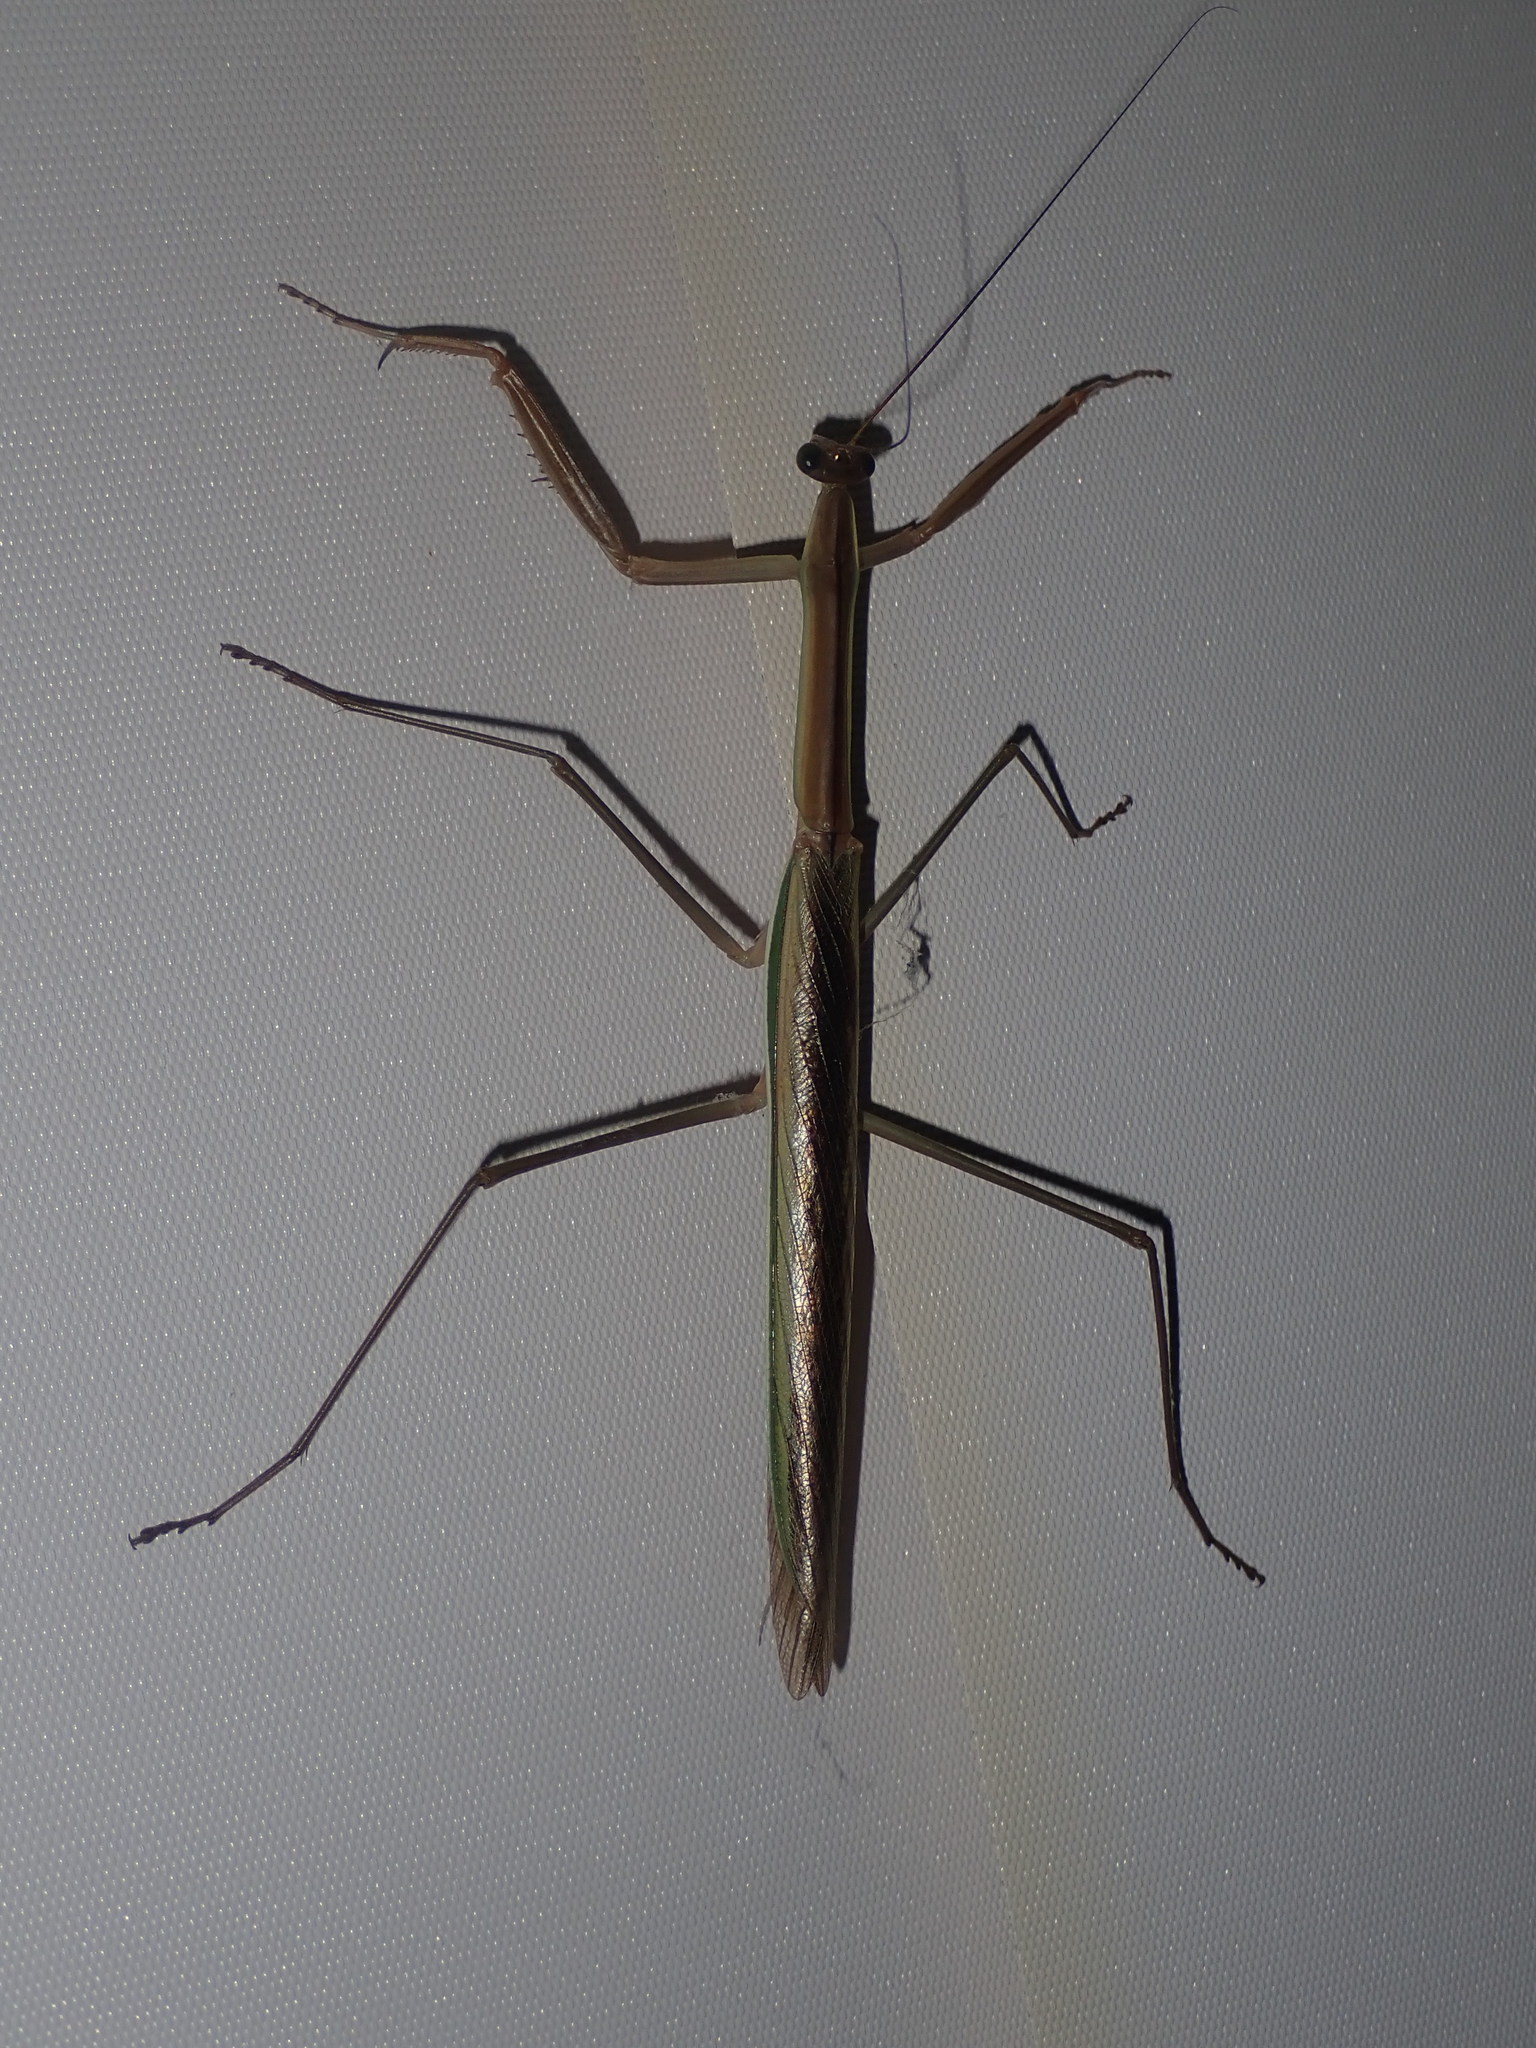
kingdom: Animalia
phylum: Arthropoda
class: Insecta
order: Mantodea
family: Mantidae
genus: Tenodera
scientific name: Tenodera australasiae
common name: Purple-winged mantis
